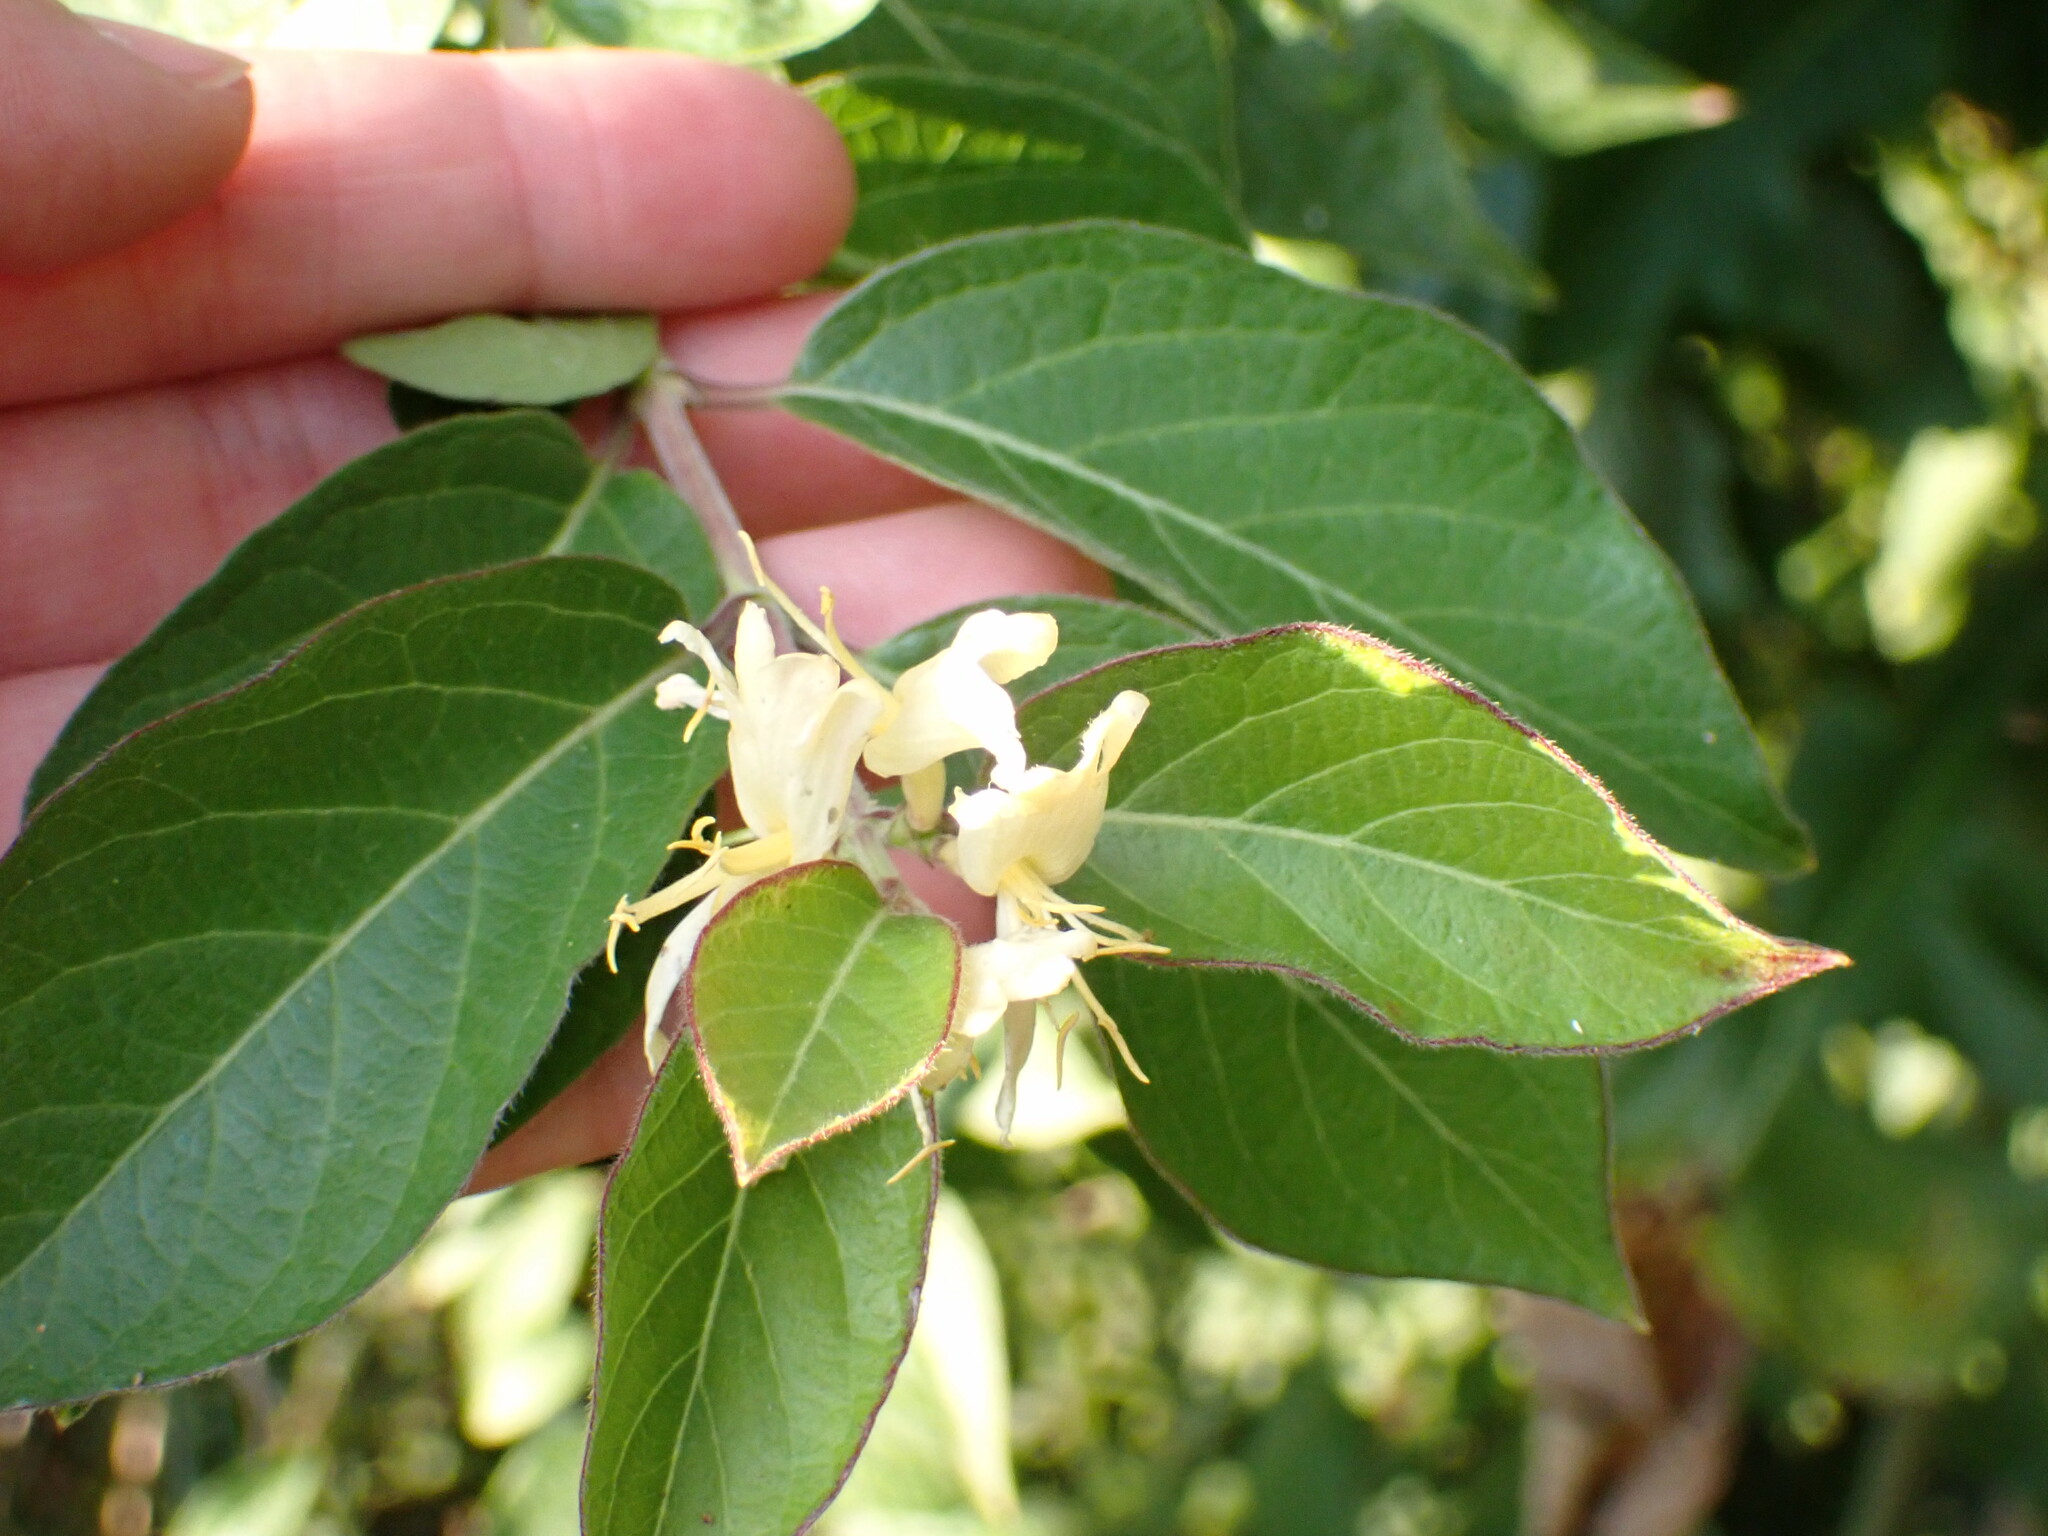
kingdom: Plantae
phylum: Tracheophyta
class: Magnoliopsida
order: Dipsacales
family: Caprifoliaceae
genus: Lonicera
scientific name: Lonicera maackii
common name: Amur honeysuckle
